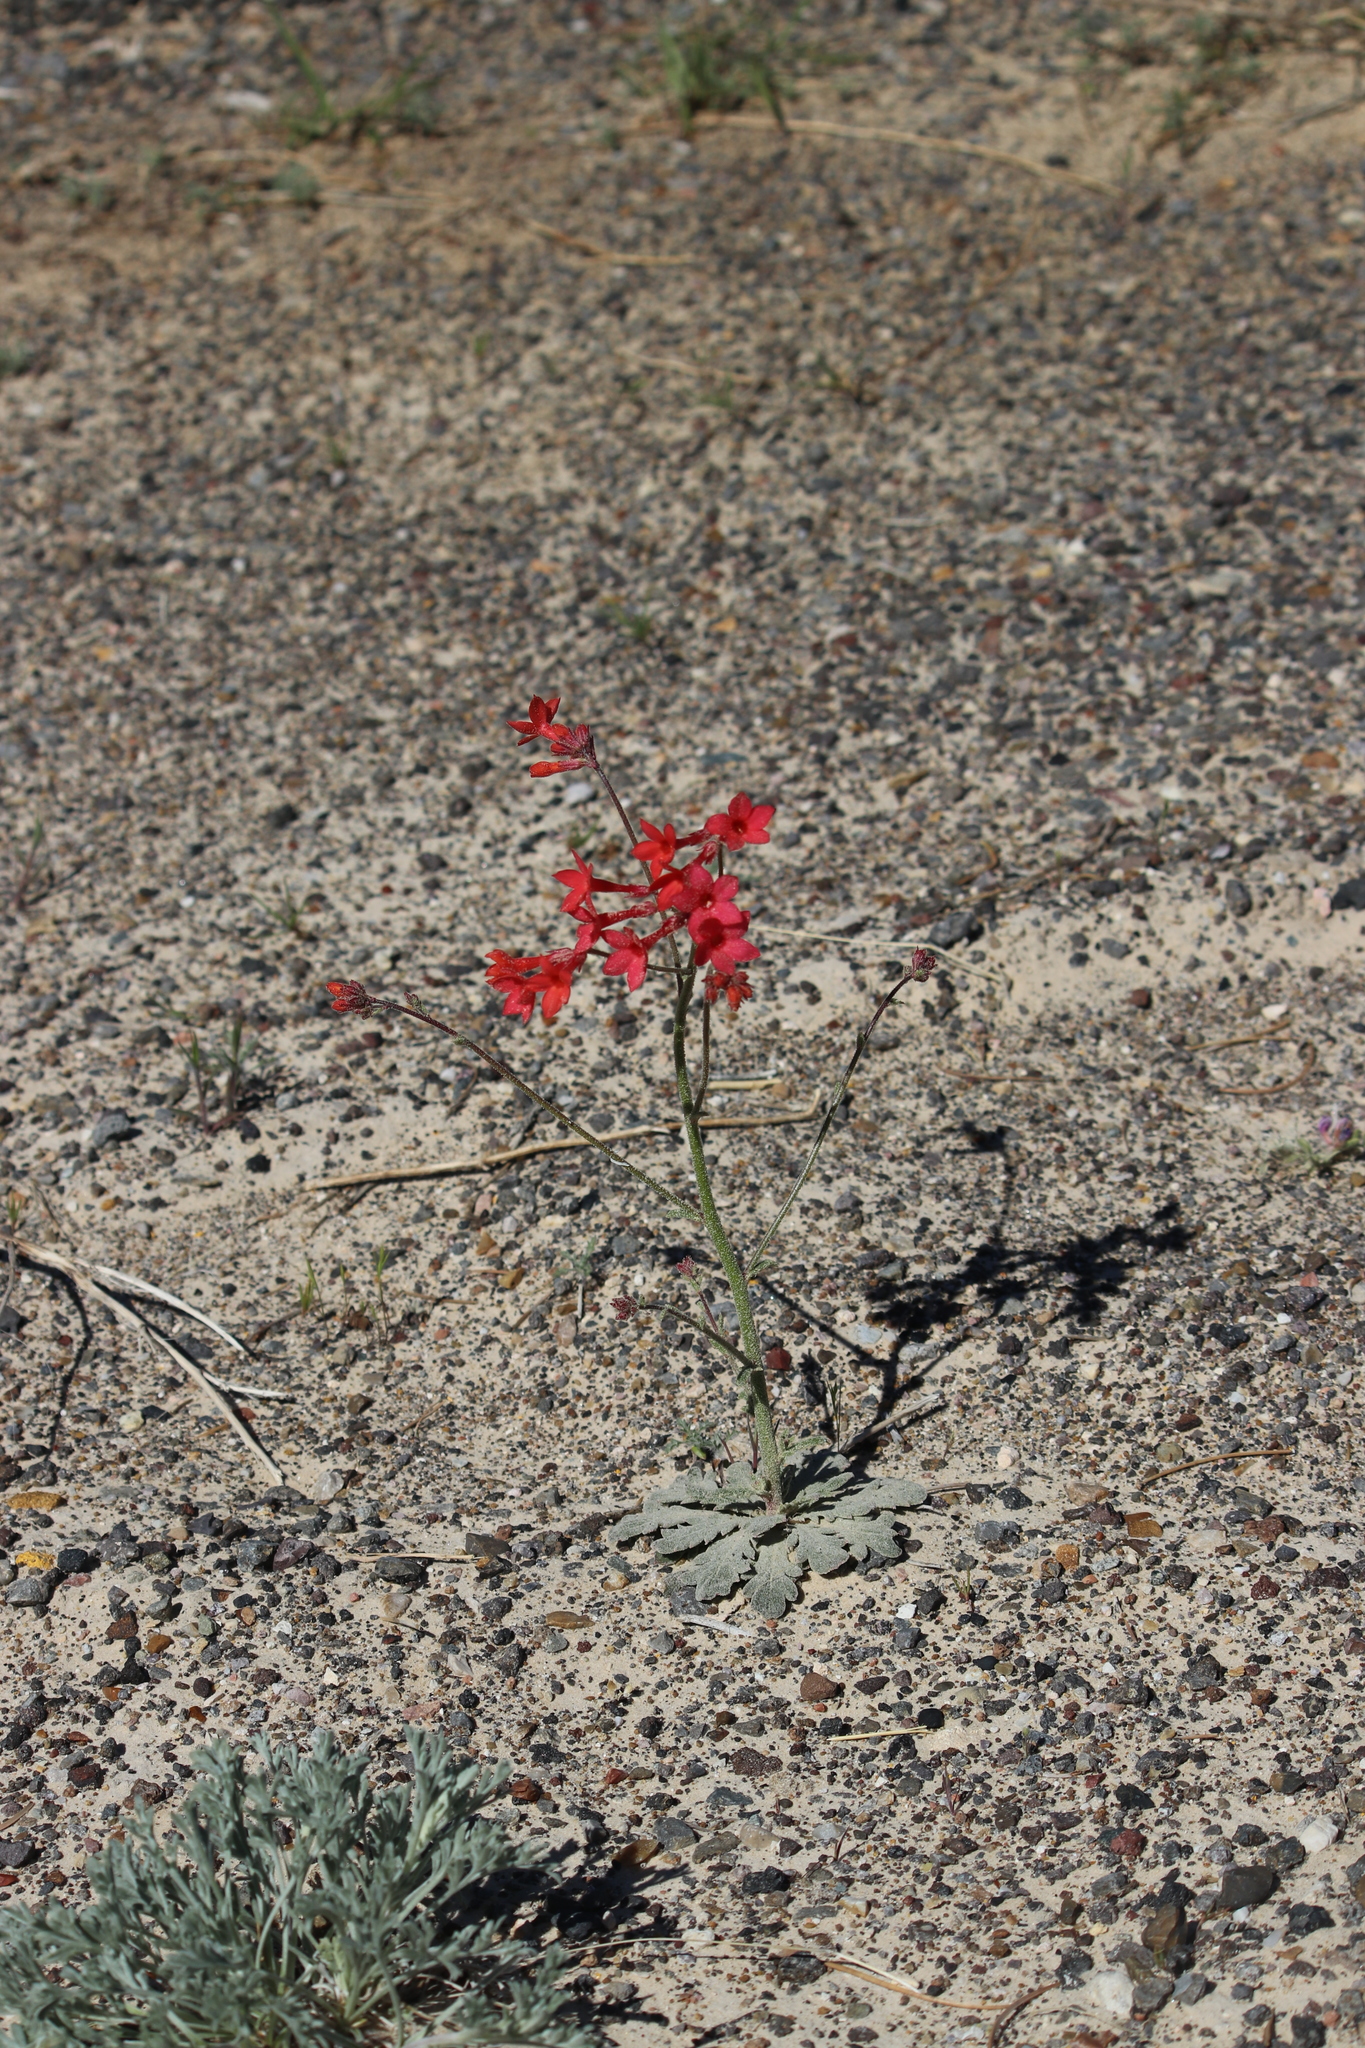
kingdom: Plantae
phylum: Tracheophyta
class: Magnoliopsida
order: Ericales
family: Polemoniaceae
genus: Aliciella
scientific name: Aliciella subnuda
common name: Coral gilia
